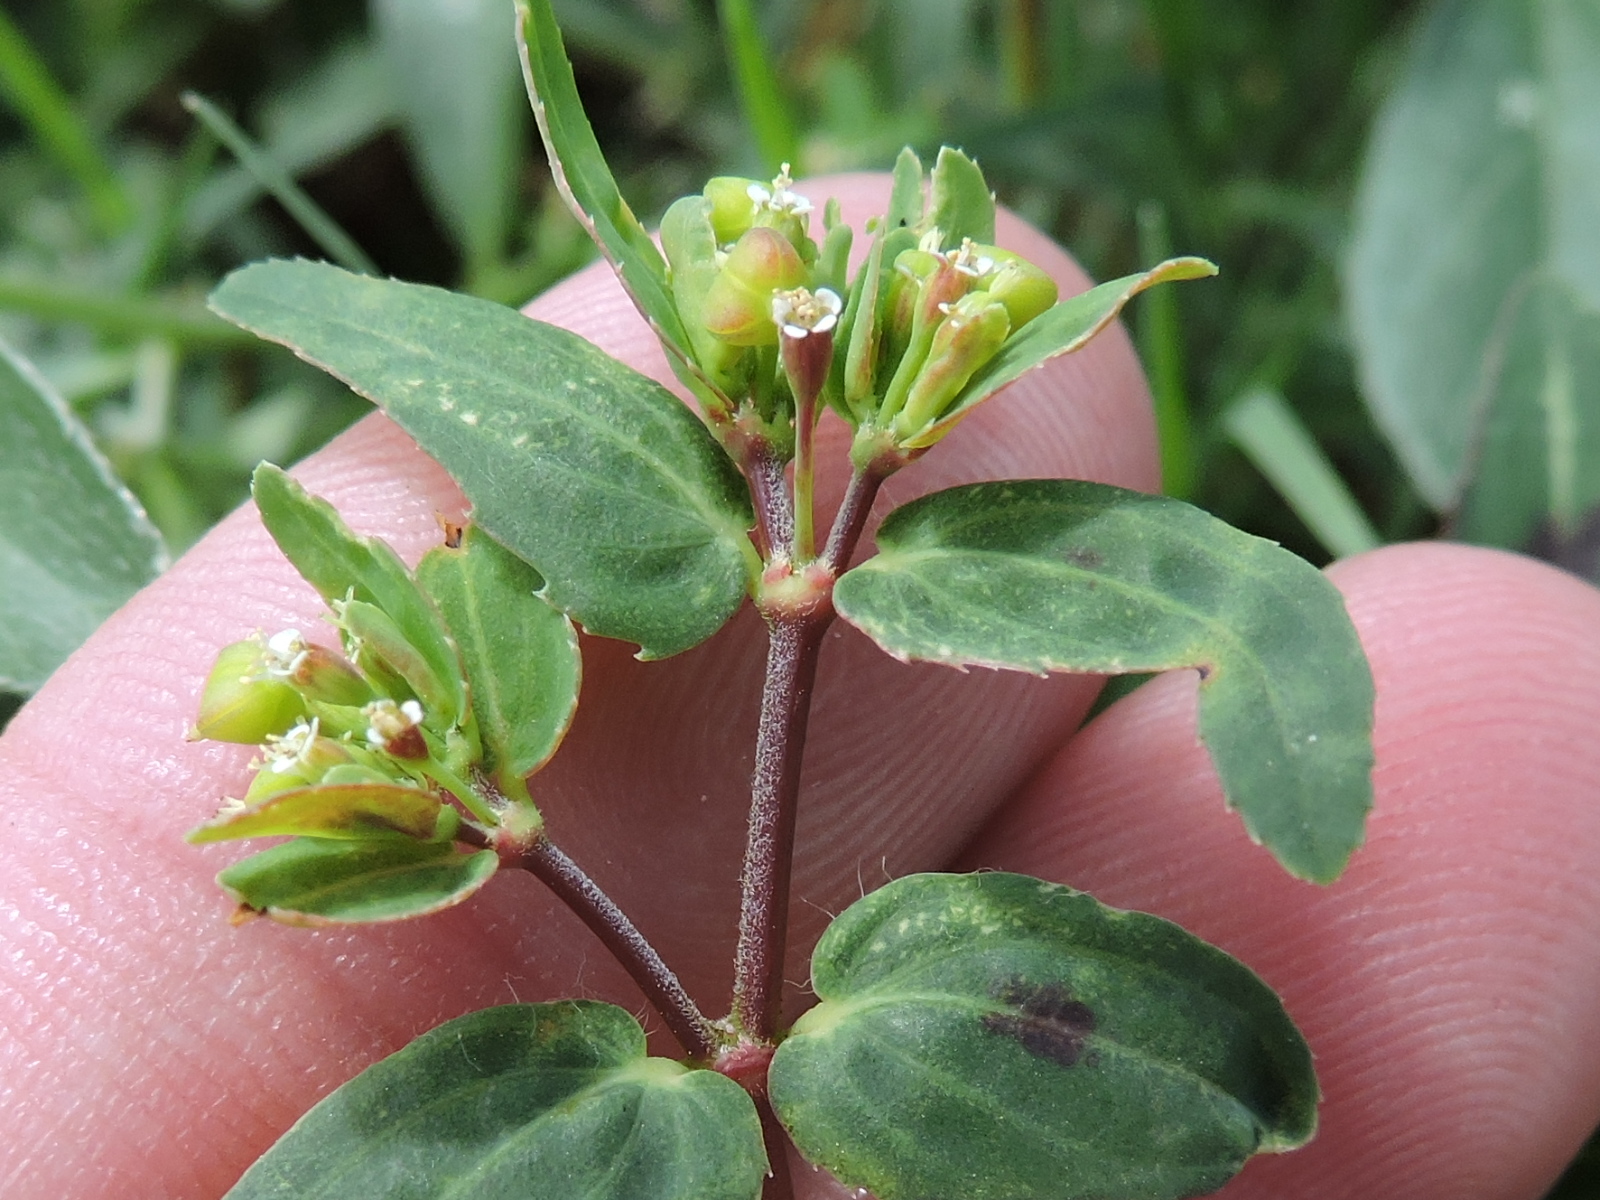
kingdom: Plantae
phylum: Tracheophyta
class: Magnoliopsida
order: Malpighiales
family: Euphorbiaceae
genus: Euphorbia
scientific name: Euphorbia nutans
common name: Eyebane
